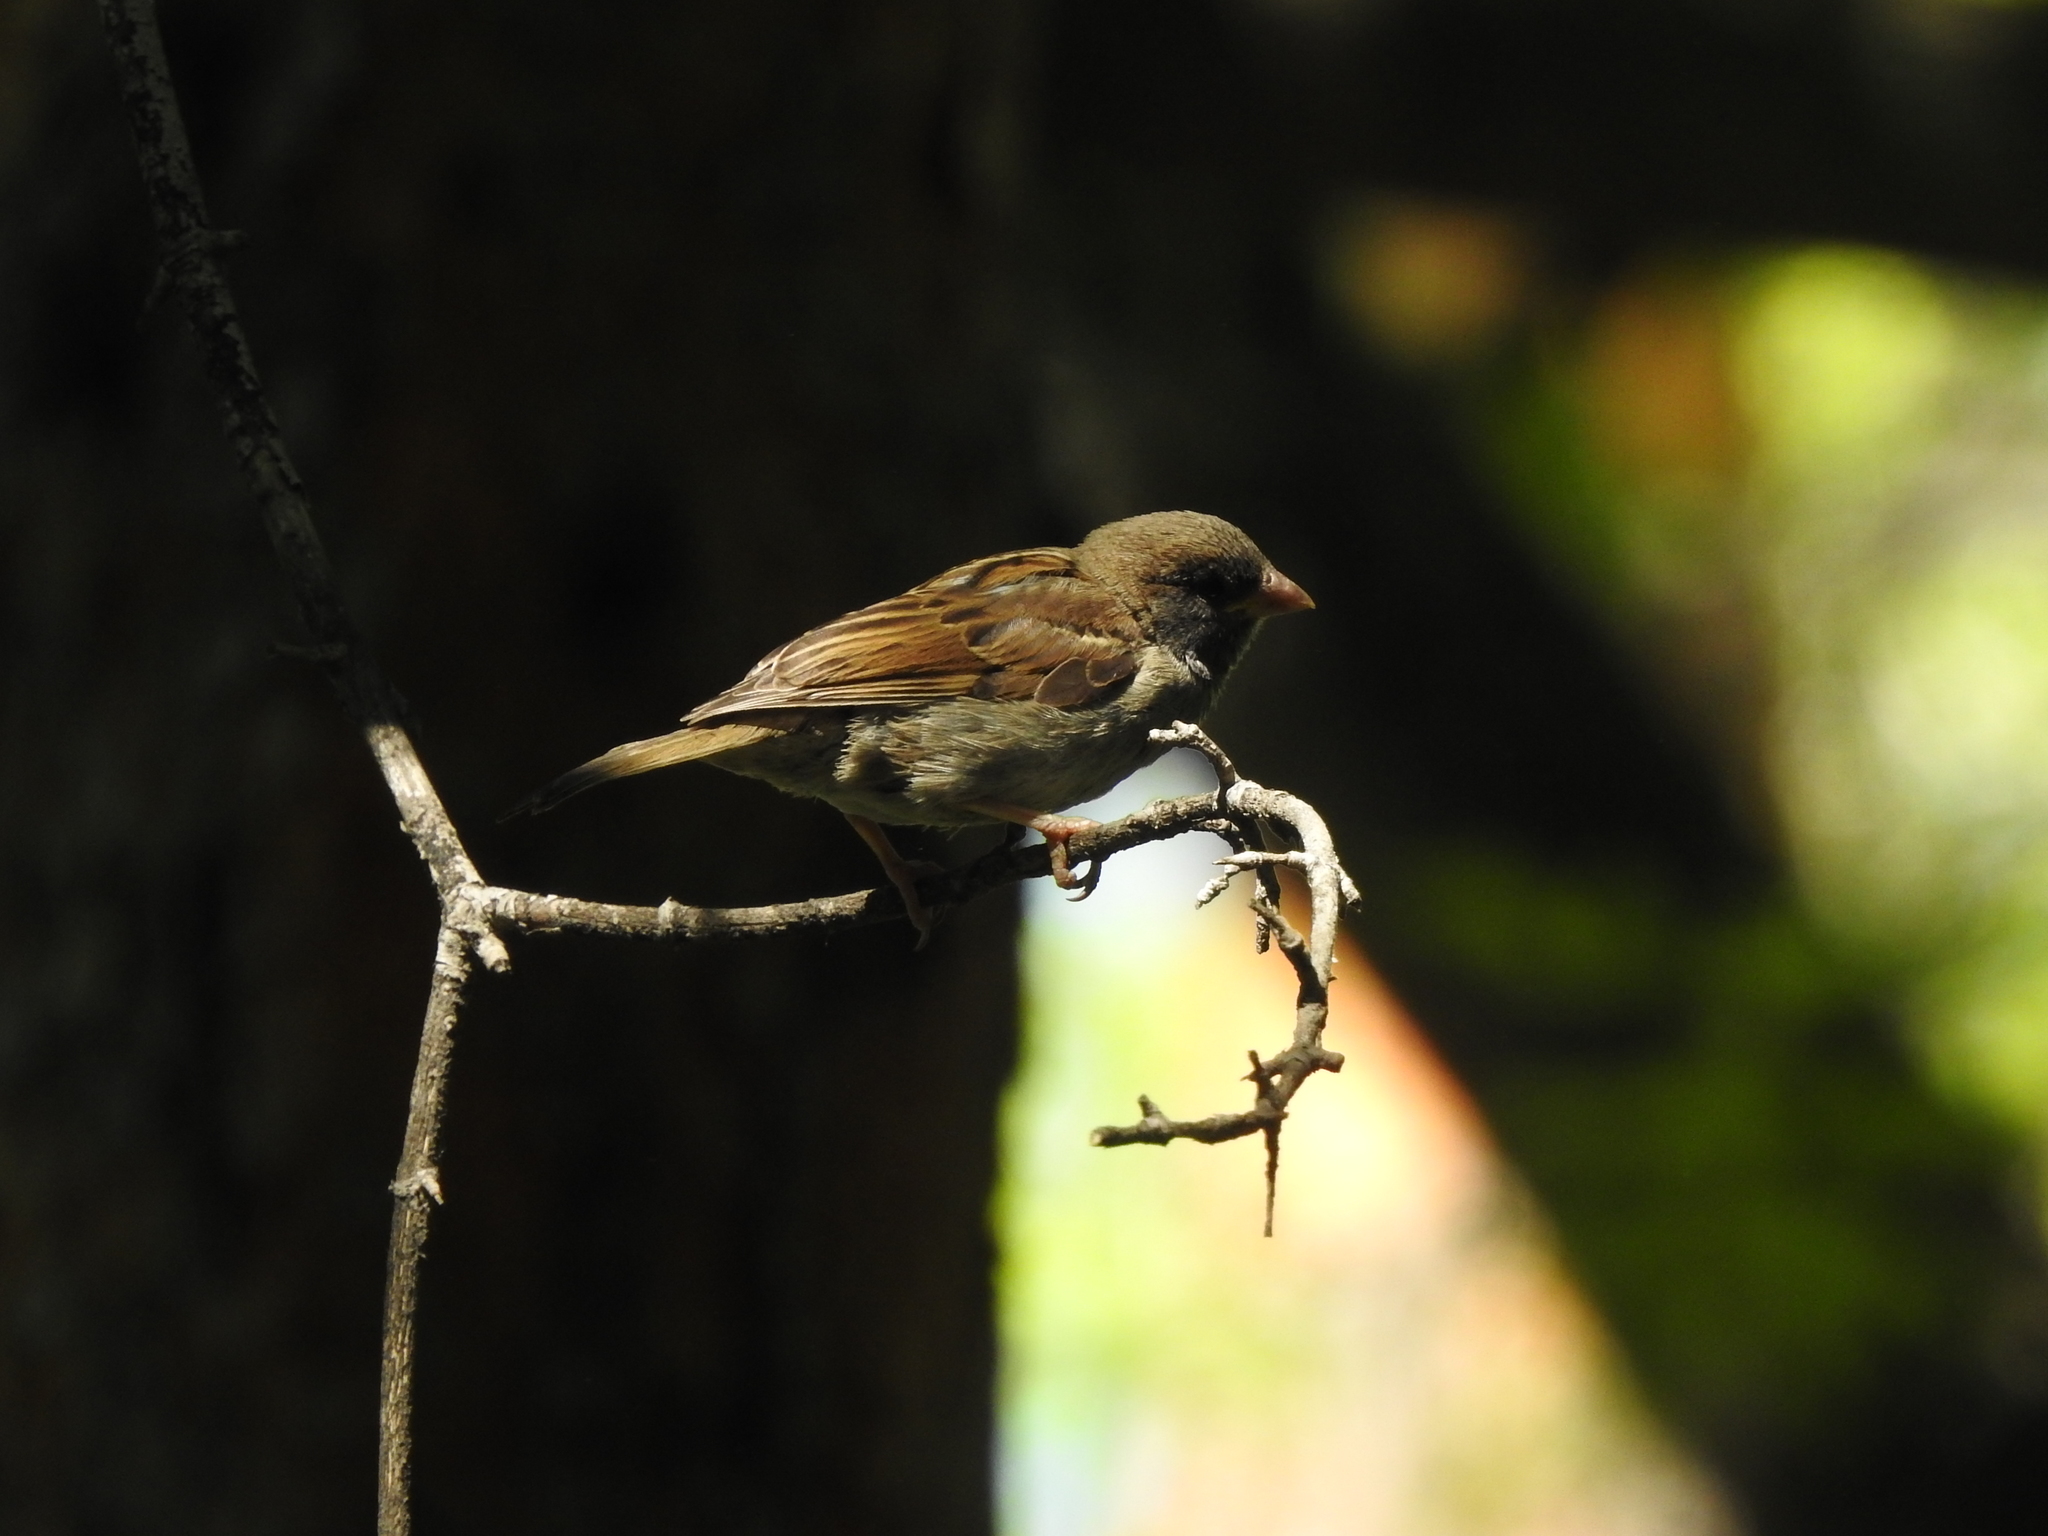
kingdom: Animalia
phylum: Chordata
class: Aves
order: Passeriformes
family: Passeridae
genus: Passer
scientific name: Passer domesticus
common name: House sparrow
